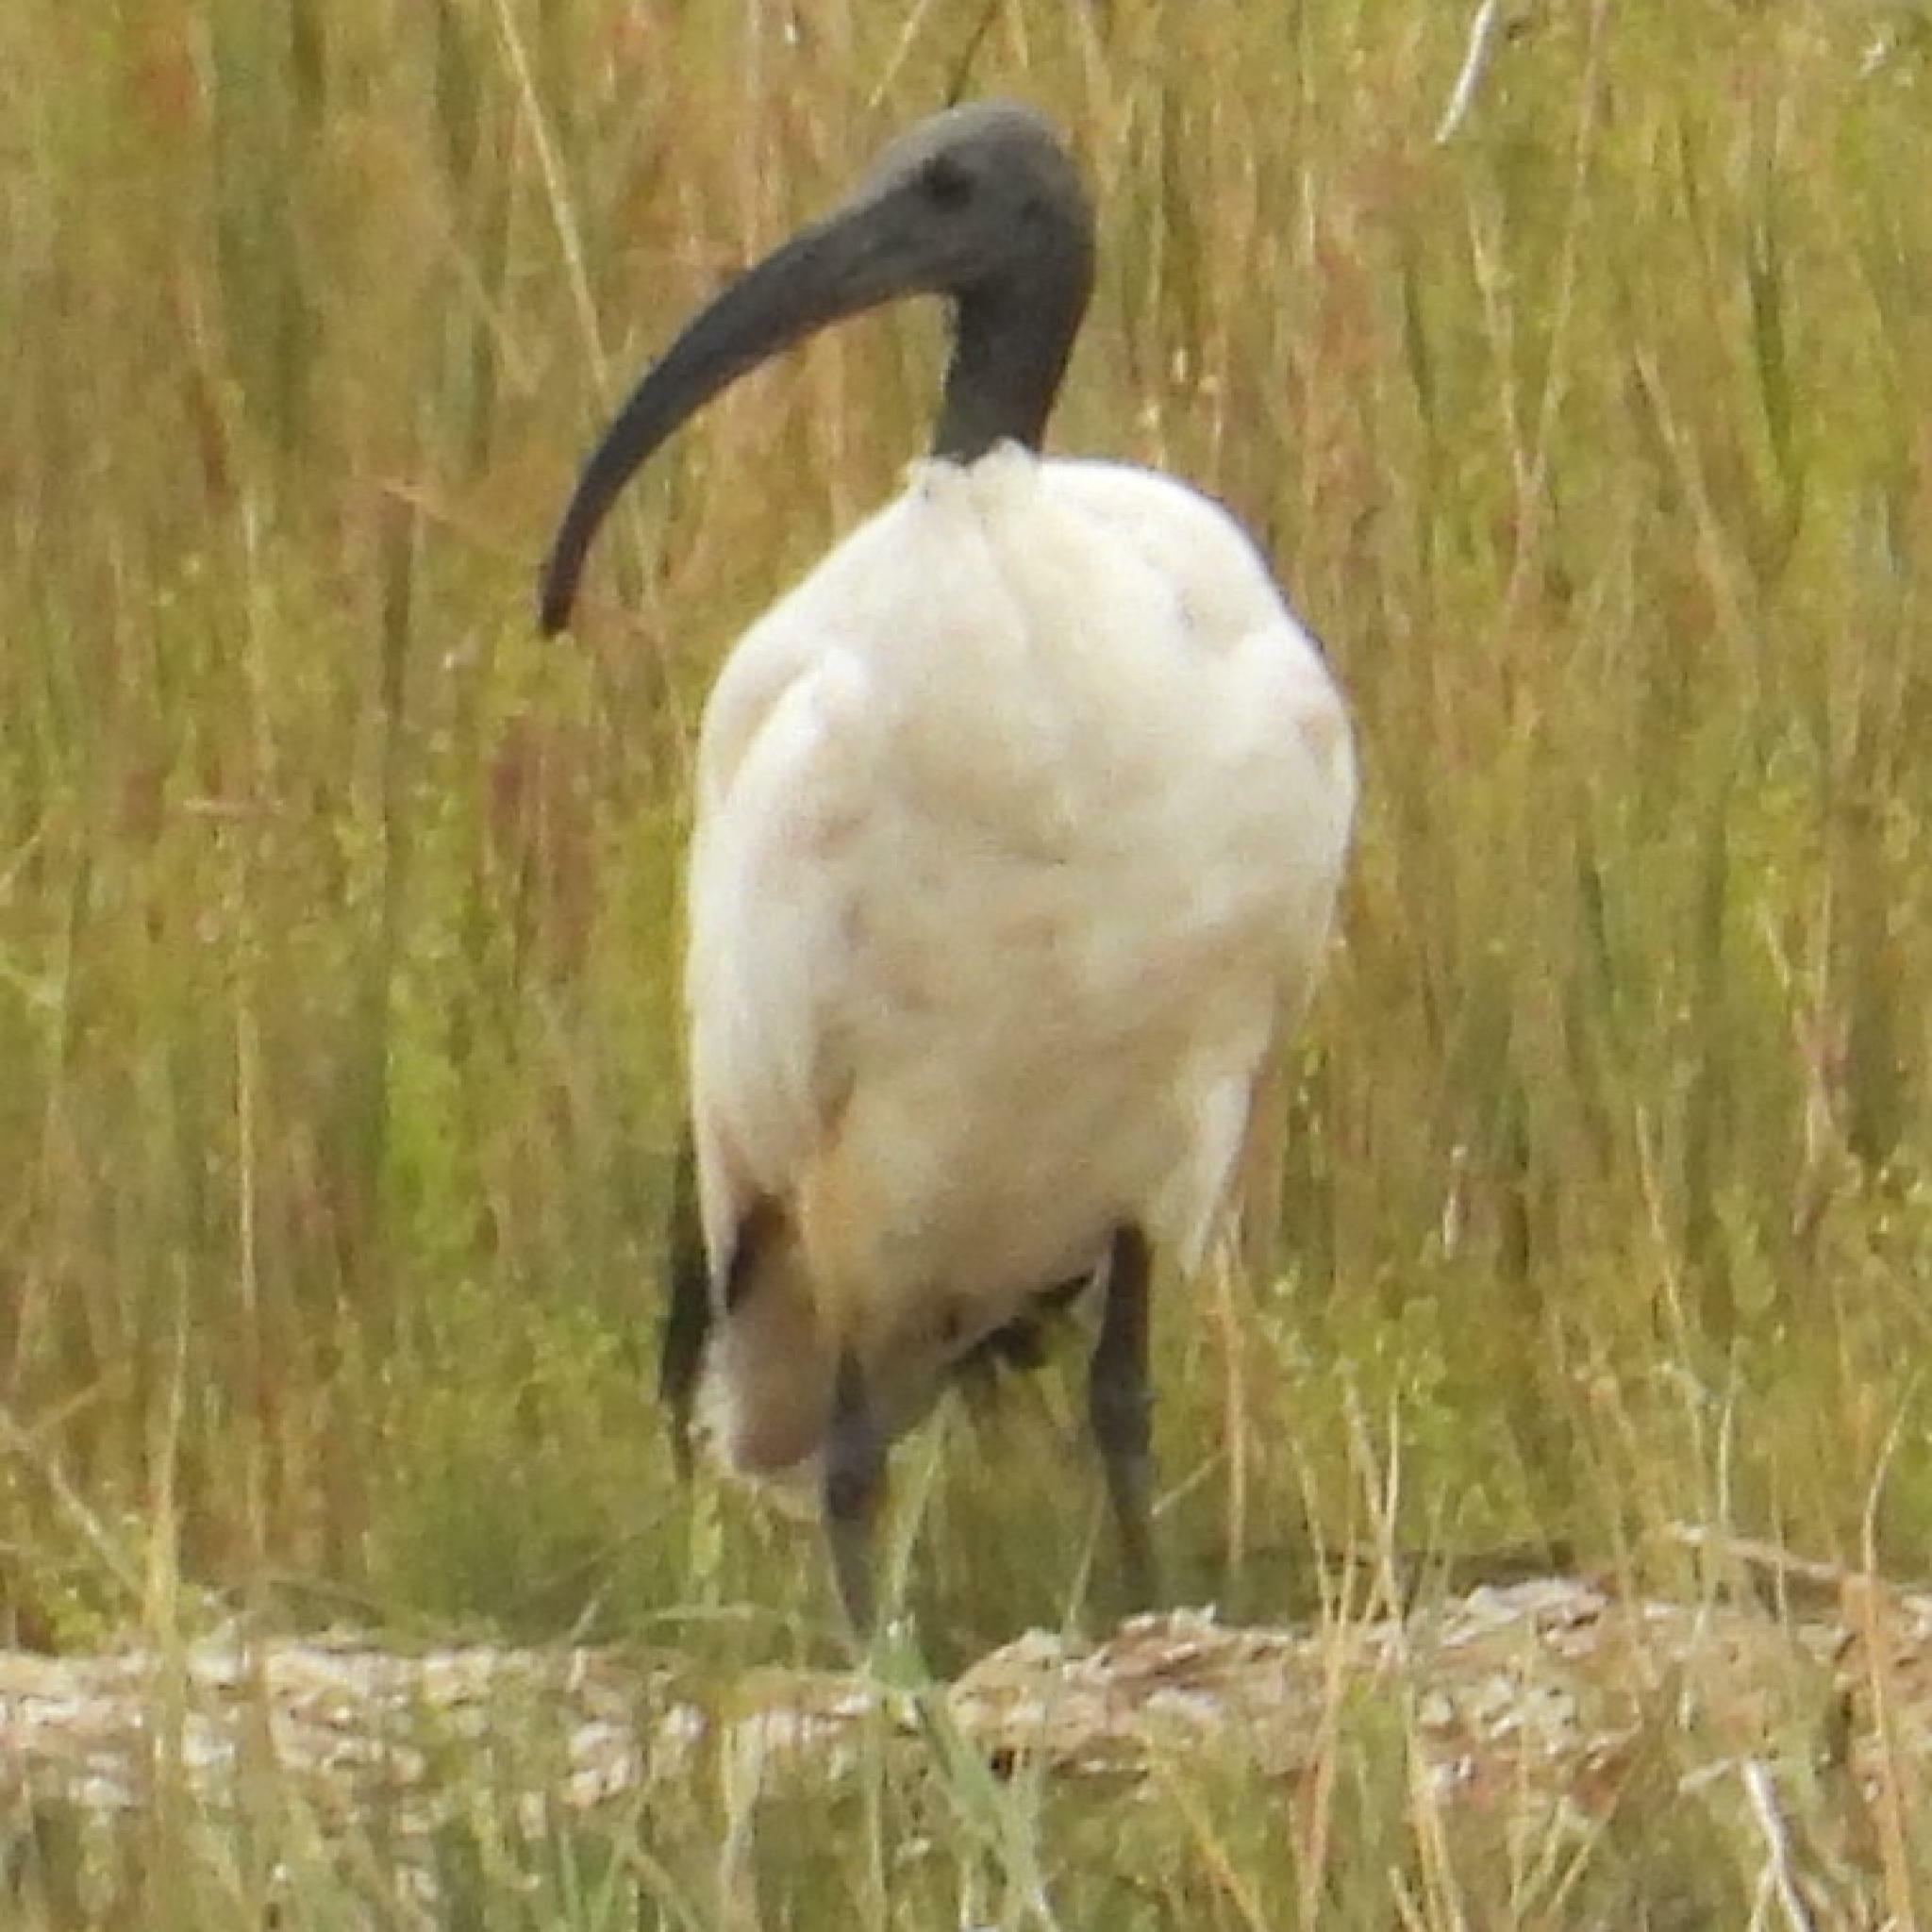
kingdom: Animalia
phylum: Chordata
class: Aves
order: Pelecaniformes
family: Threskiornithidae
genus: Threskiornis
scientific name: Threskiornis aethiopicus
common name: Sacred ibis
